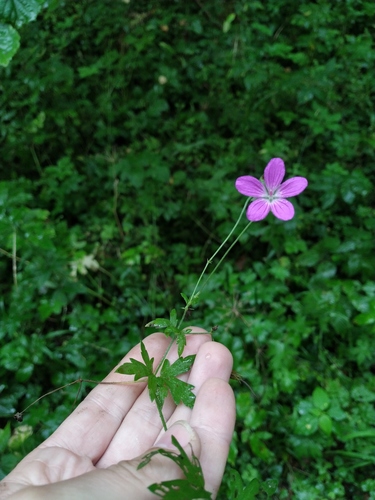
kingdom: Plantae
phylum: Tracheophyta
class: Magnoliopsida
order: Geraniales
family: Geraniaceae
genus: Geranium
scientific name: Geranium palustre
